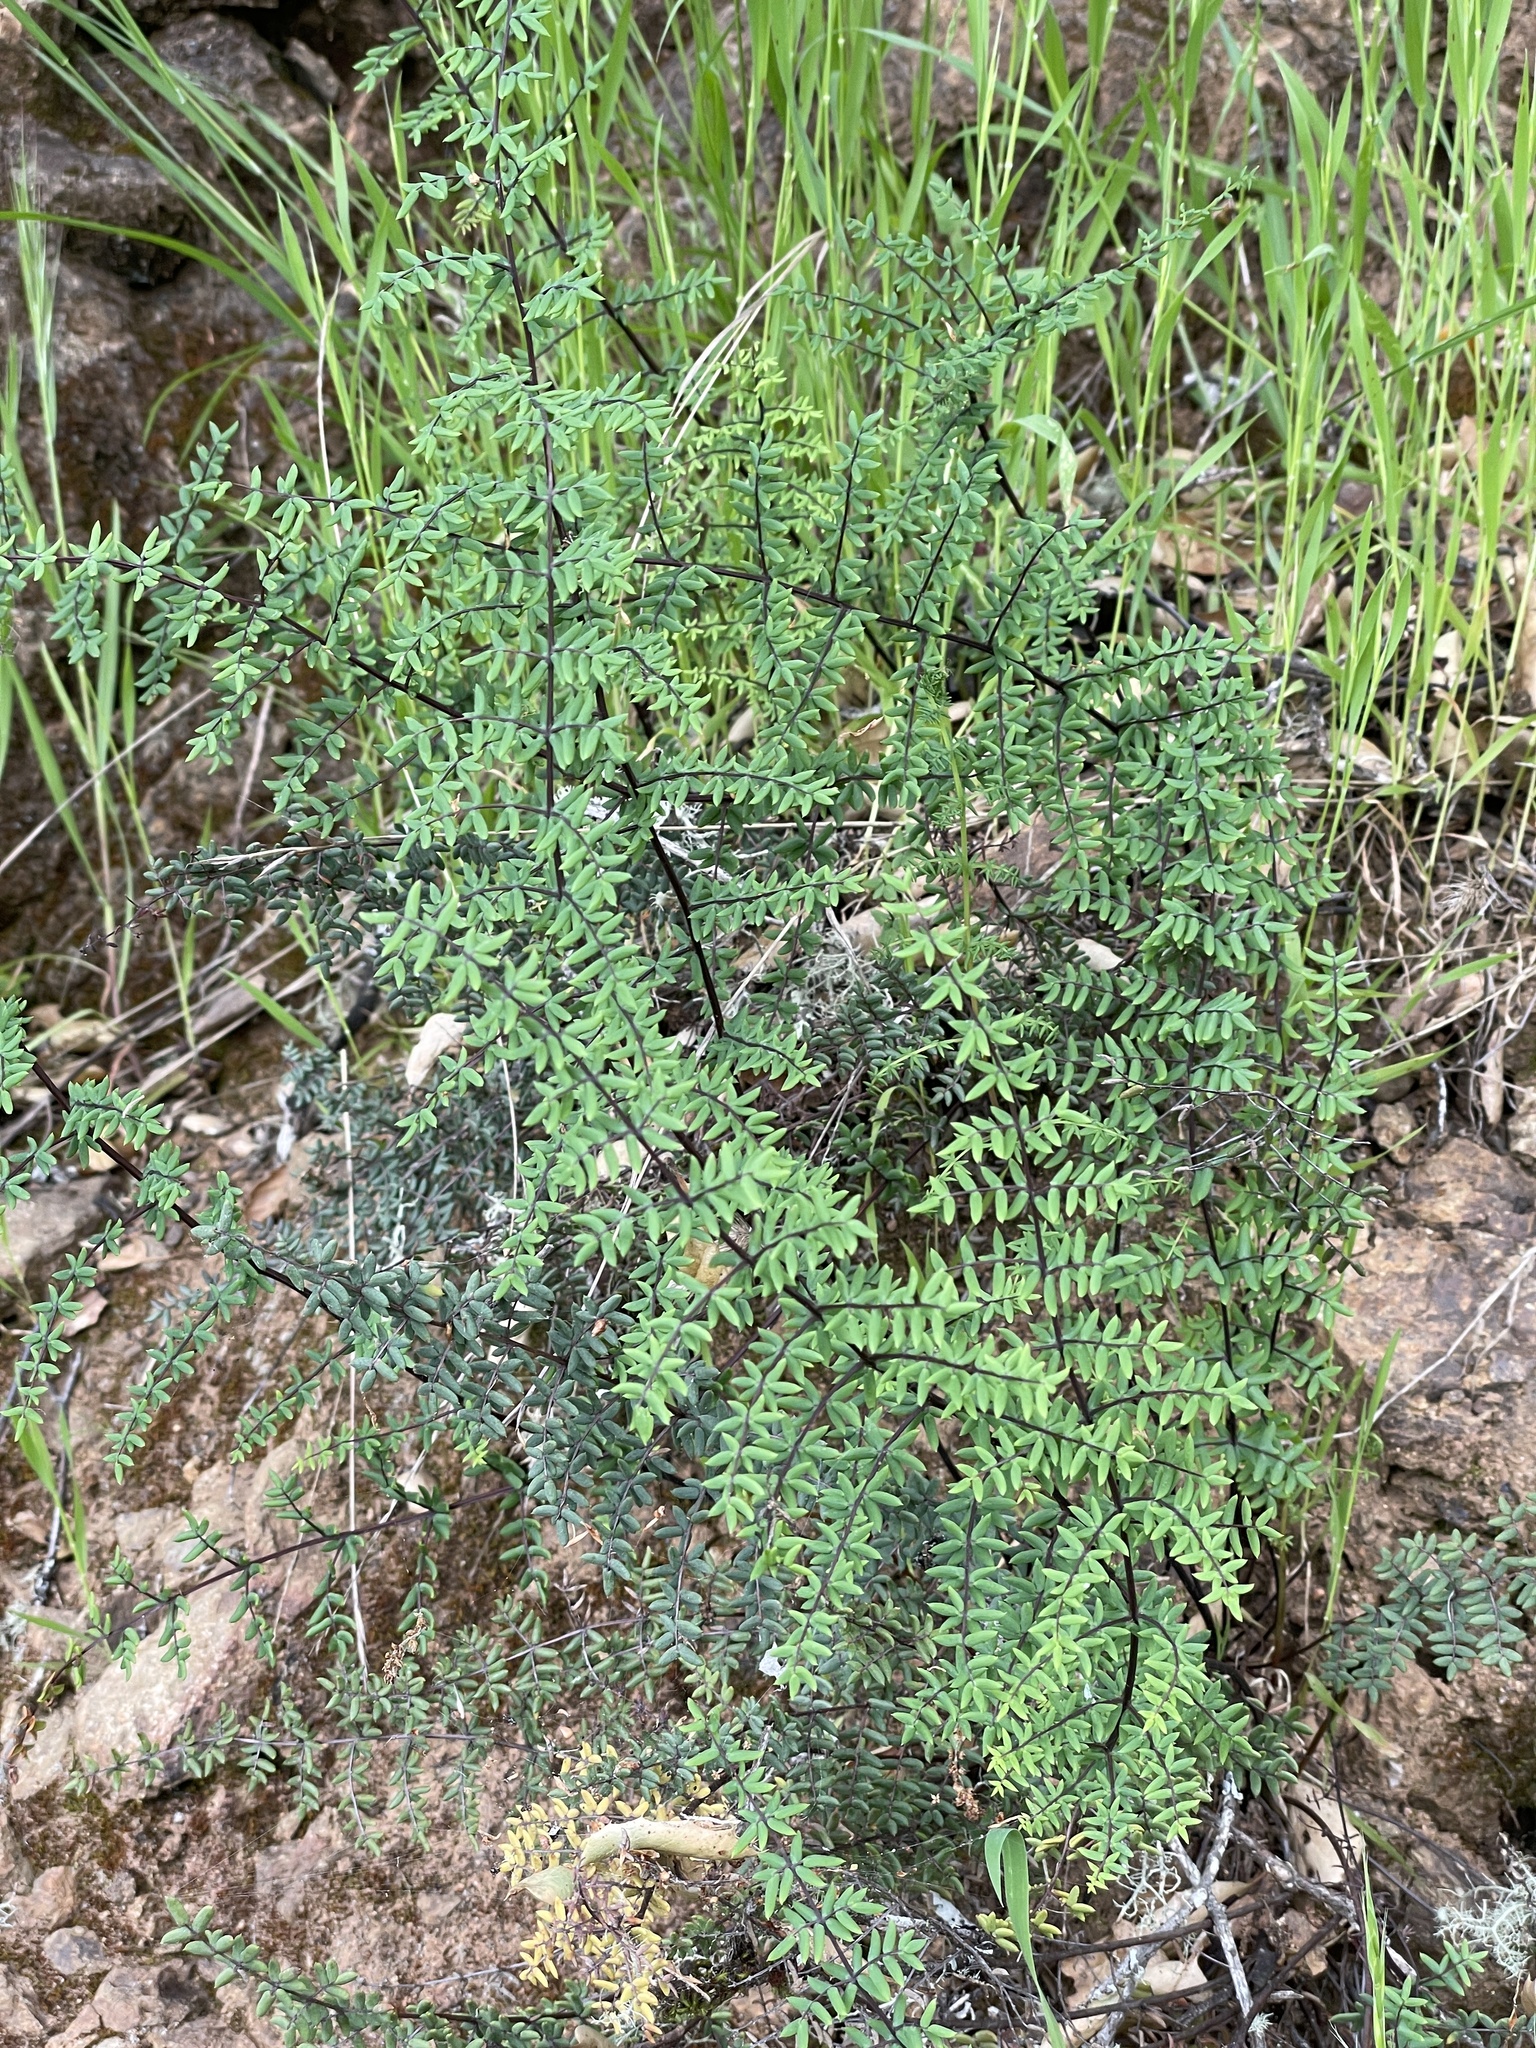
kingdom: Plantae
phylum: Tracheophyta
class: Polypodiopsida
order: Polypodiales
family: Pteridaceae
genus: Pellaea
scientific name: Pellaea mucronata
